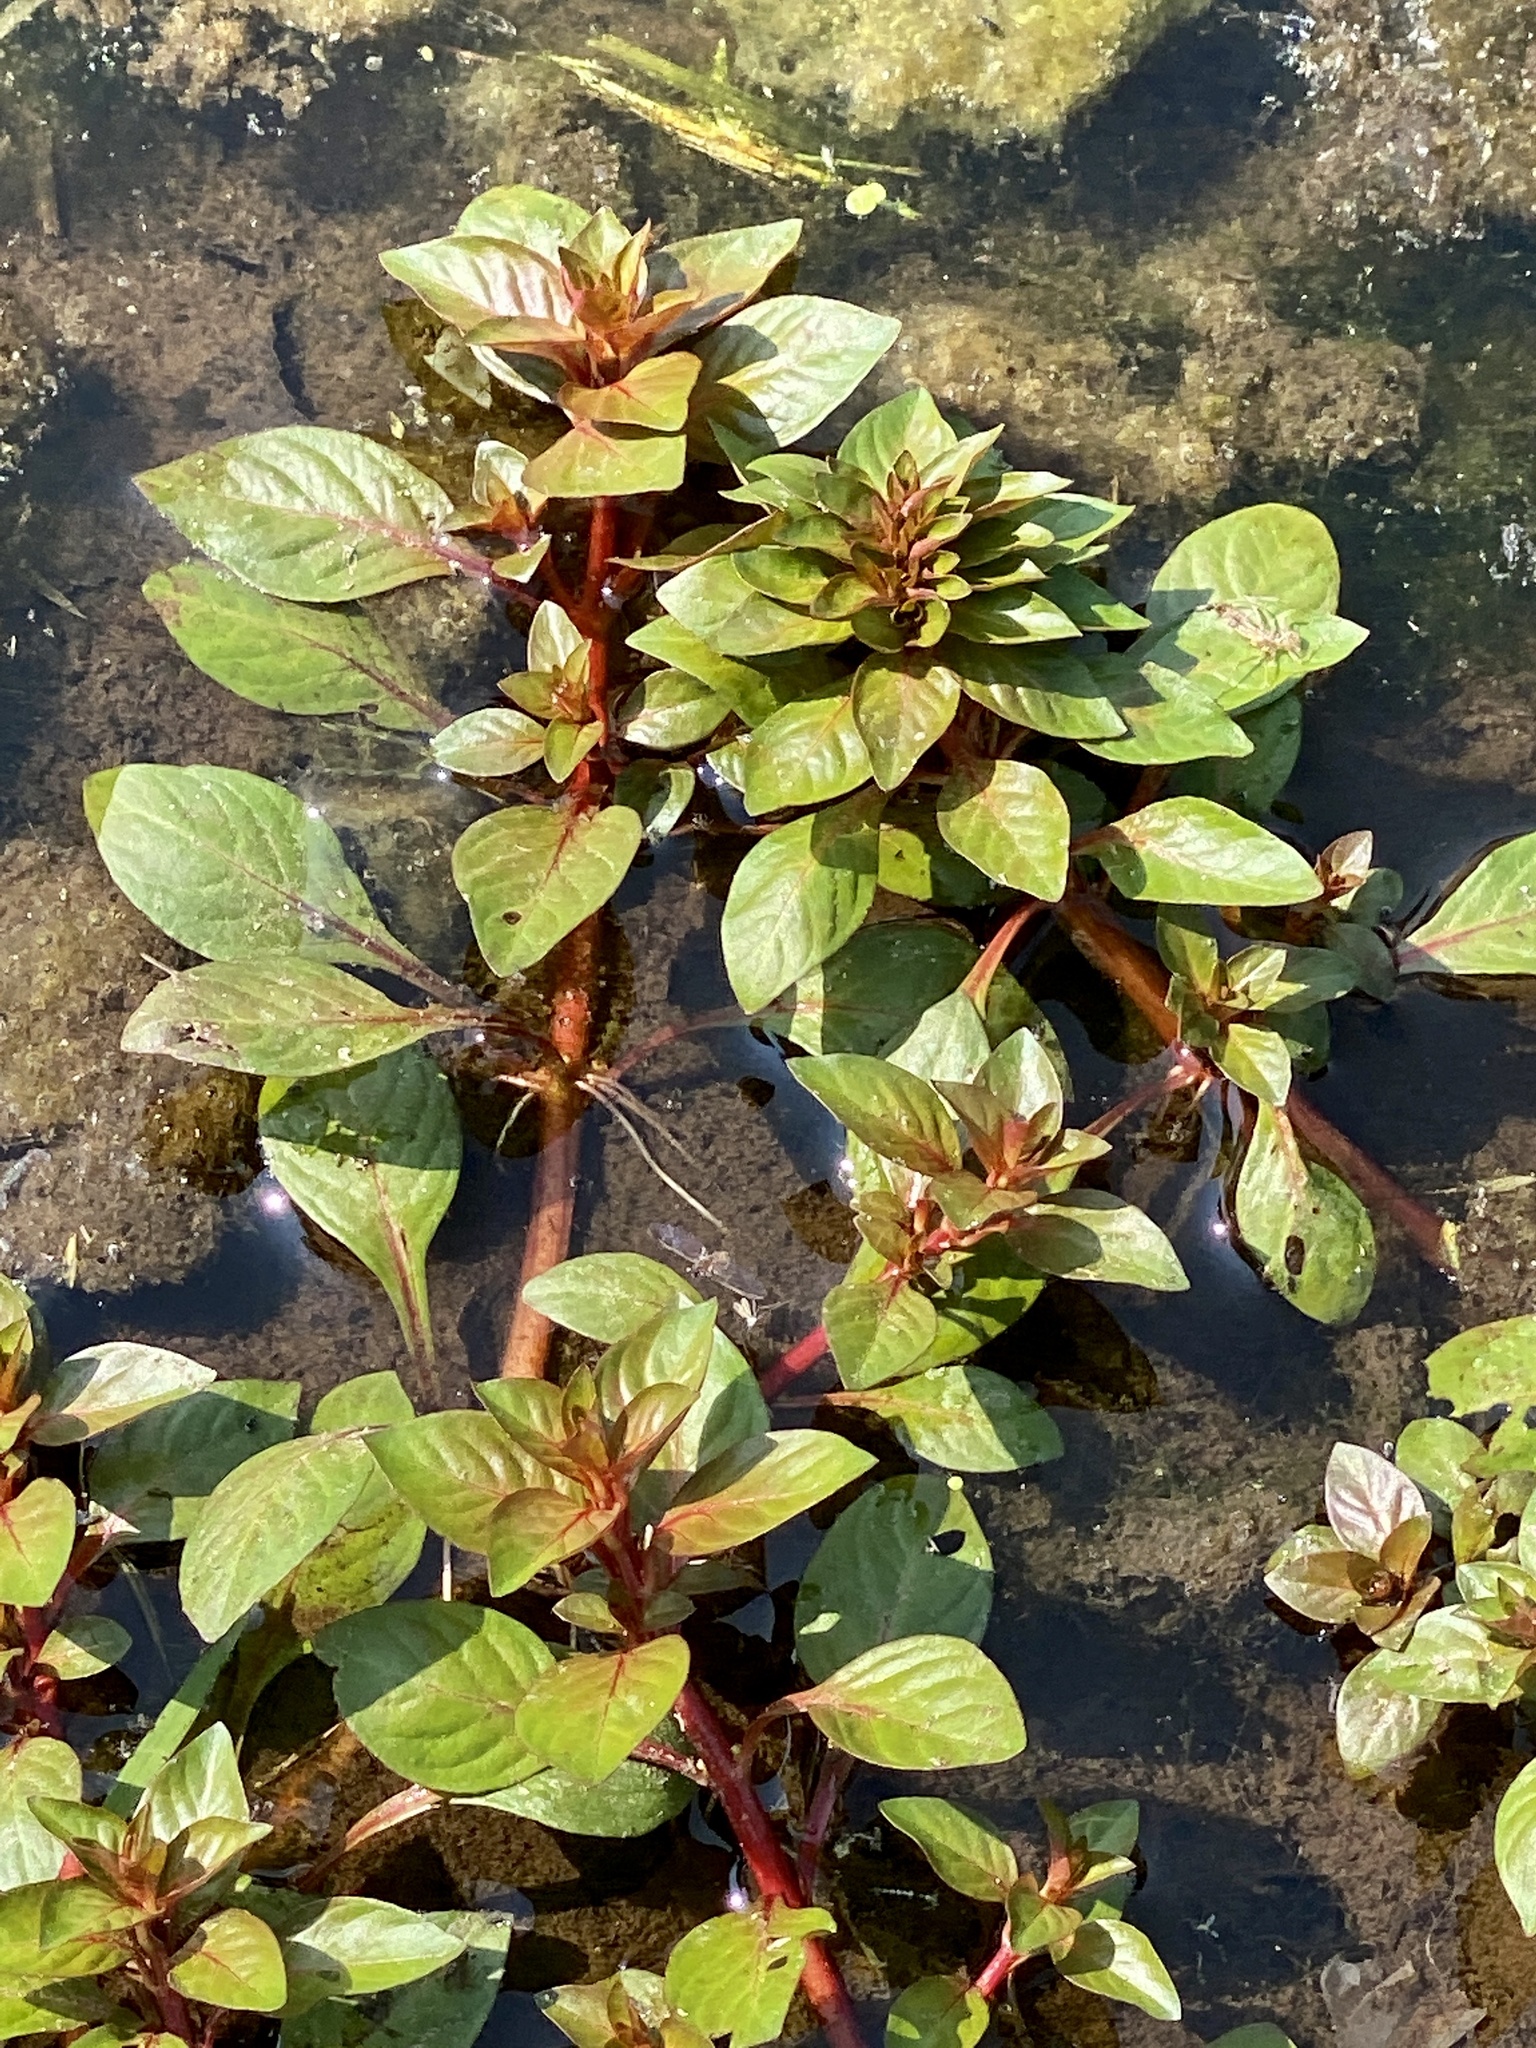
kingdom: Plantae
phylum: Tracheophyta
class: Magnoliopsida
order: Myrtales
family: Onagraceae
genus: Ludwigia
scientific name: Ludwigia palustris
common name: Hampshire-purslane
